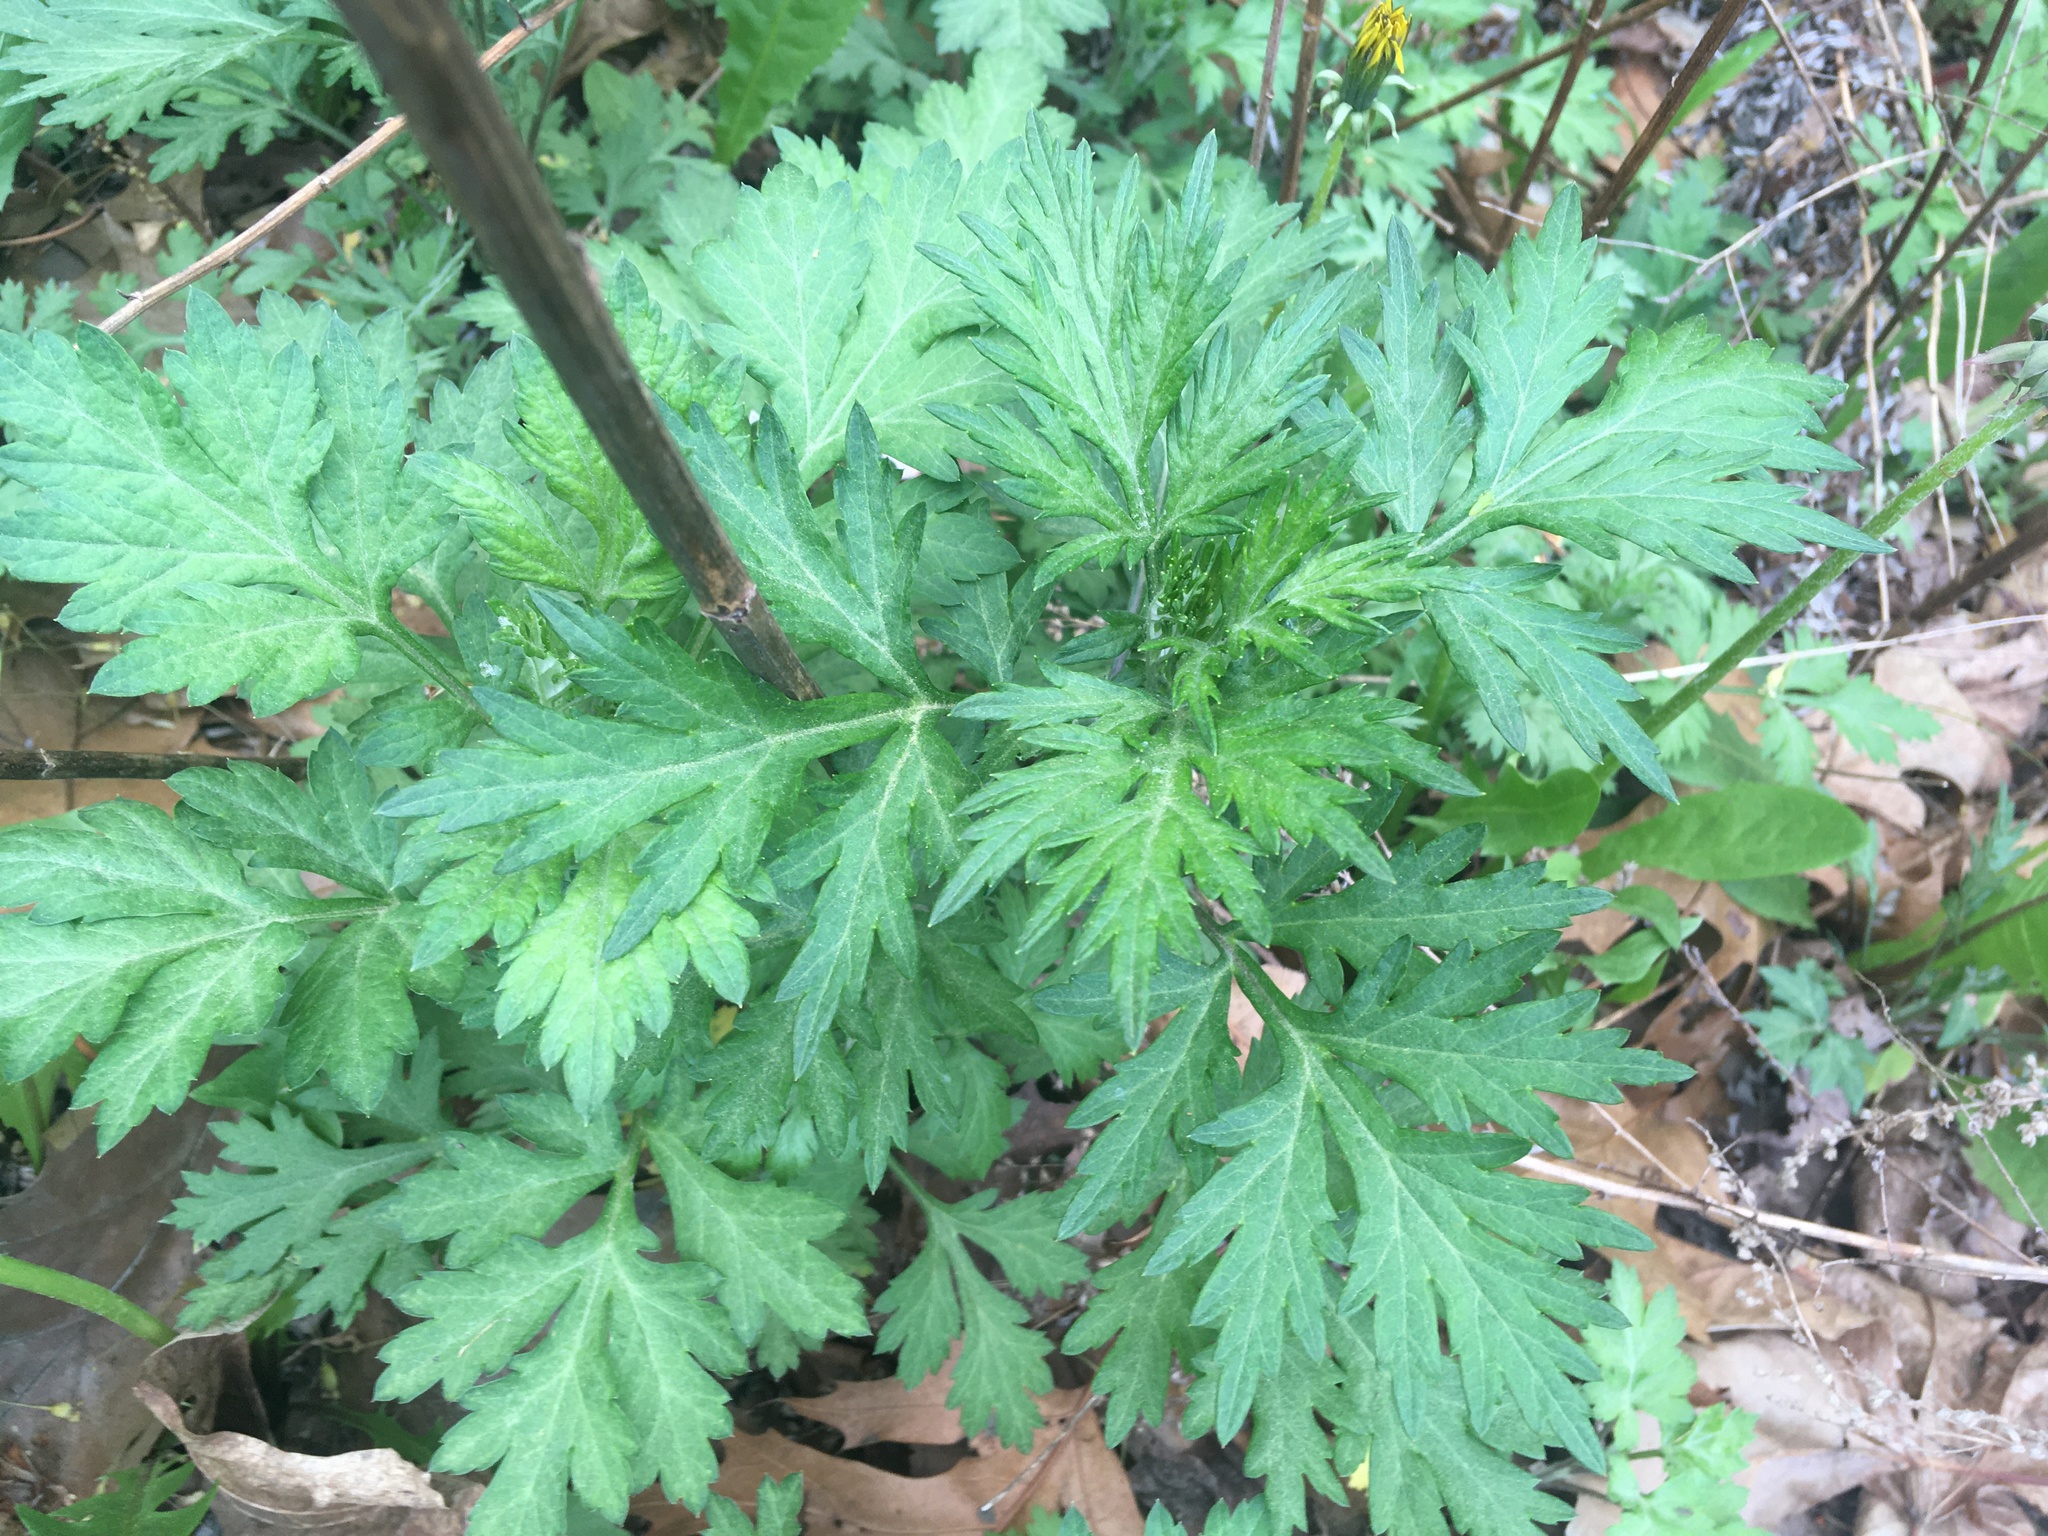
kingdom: Plantae
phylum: Tracheophyta
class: Magnoliopsida
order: Asterales
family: Asteraceae
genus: Artemisia
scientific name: Artemisia vulgaris
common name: Mugwort
